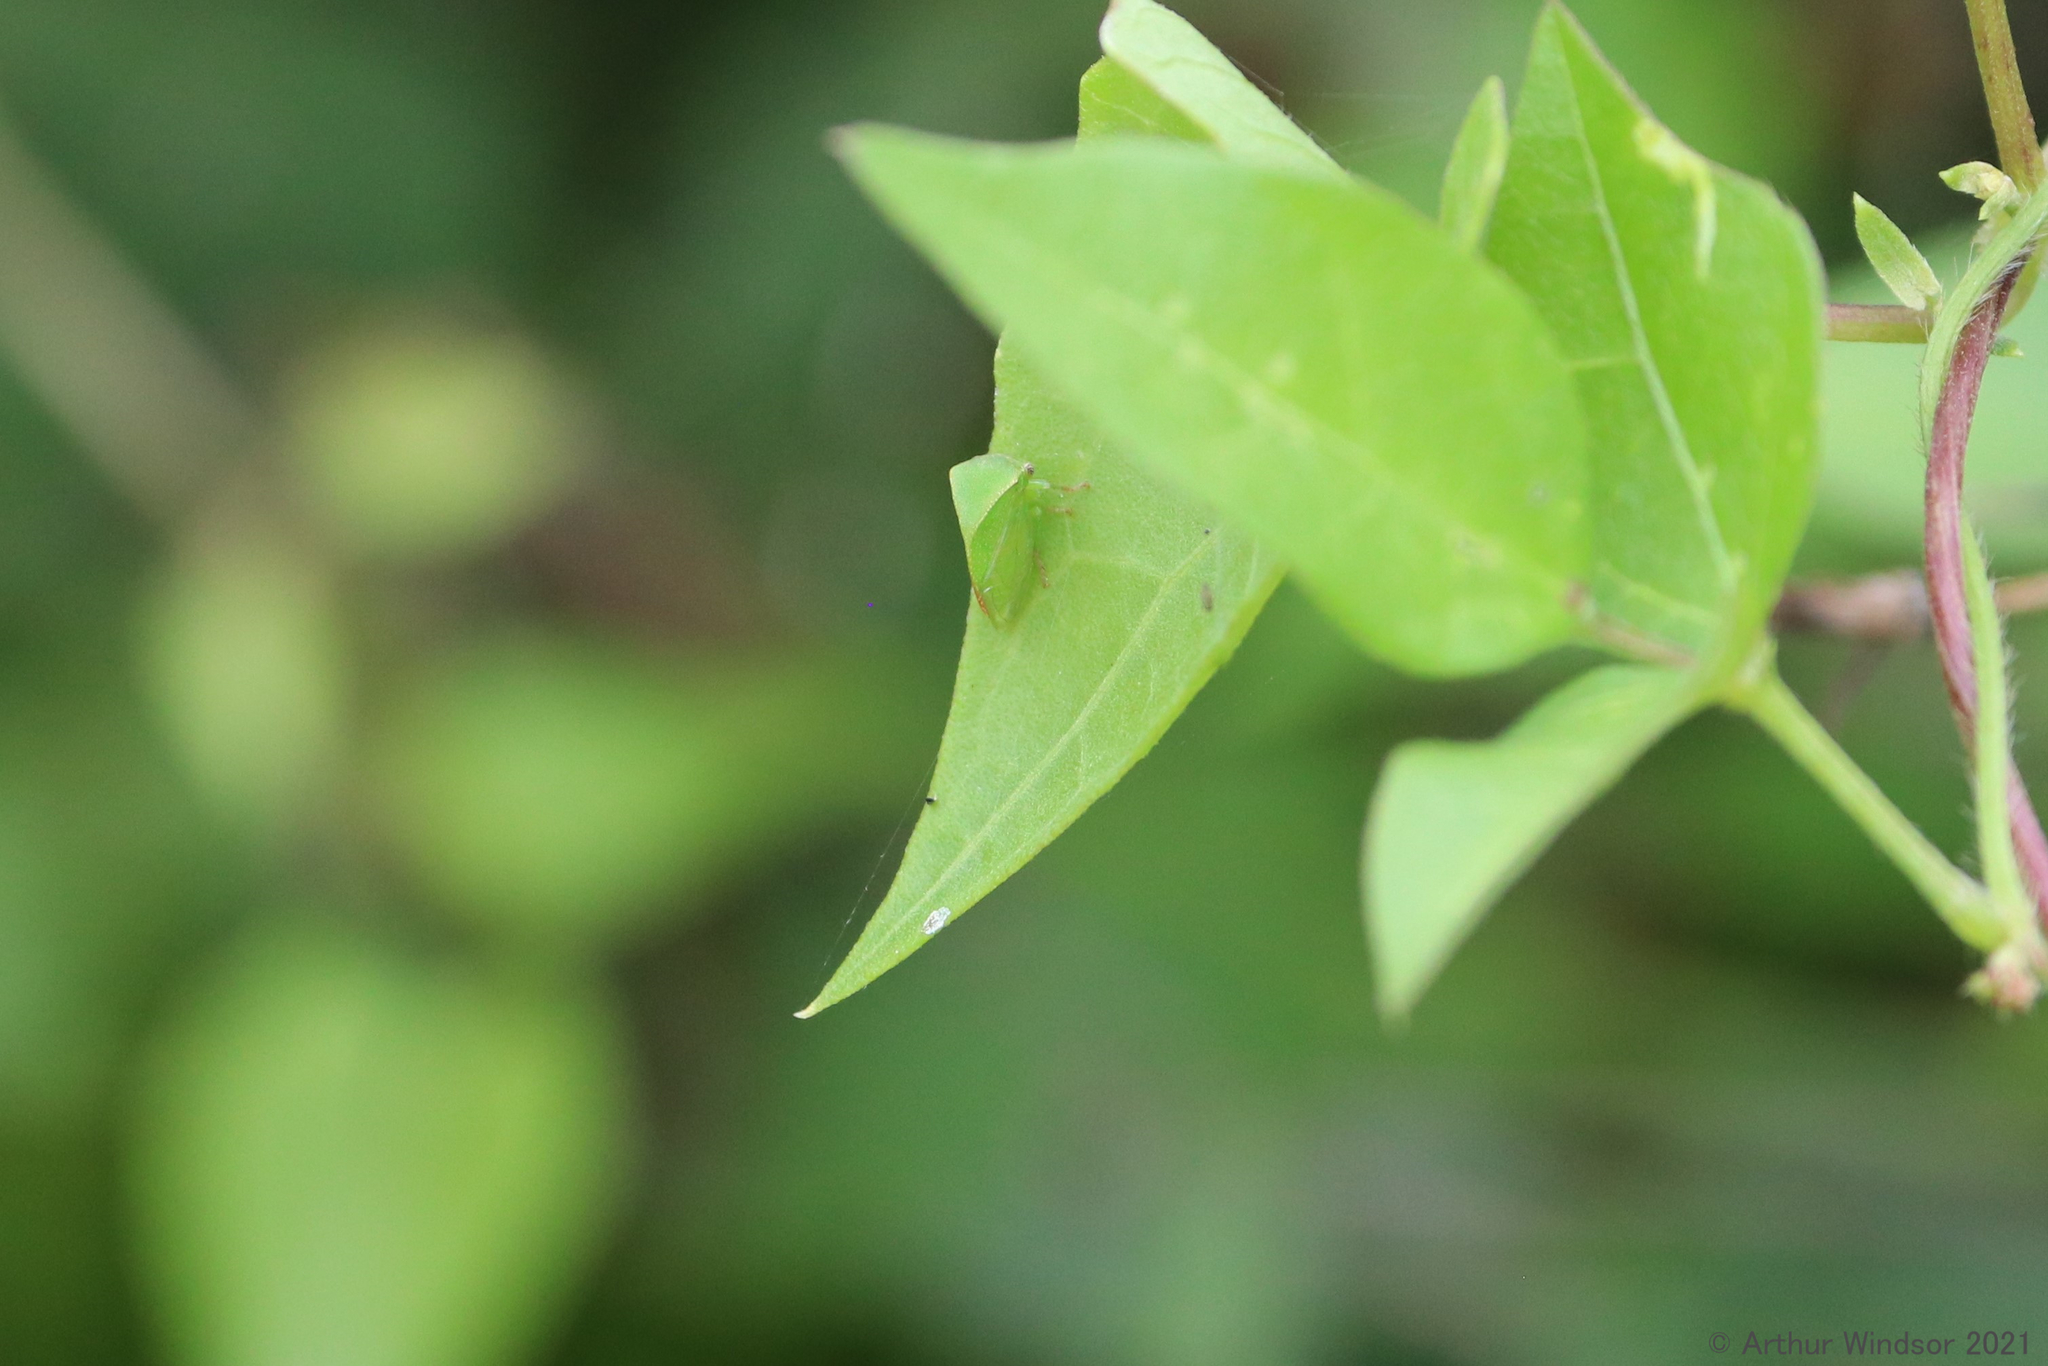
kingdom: Animalia
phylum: Arthropoda
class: Insecta
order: Hemiptera
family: Membracidae
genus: Spissistilus
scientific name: Spissistilus festina
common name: Membracid bug
